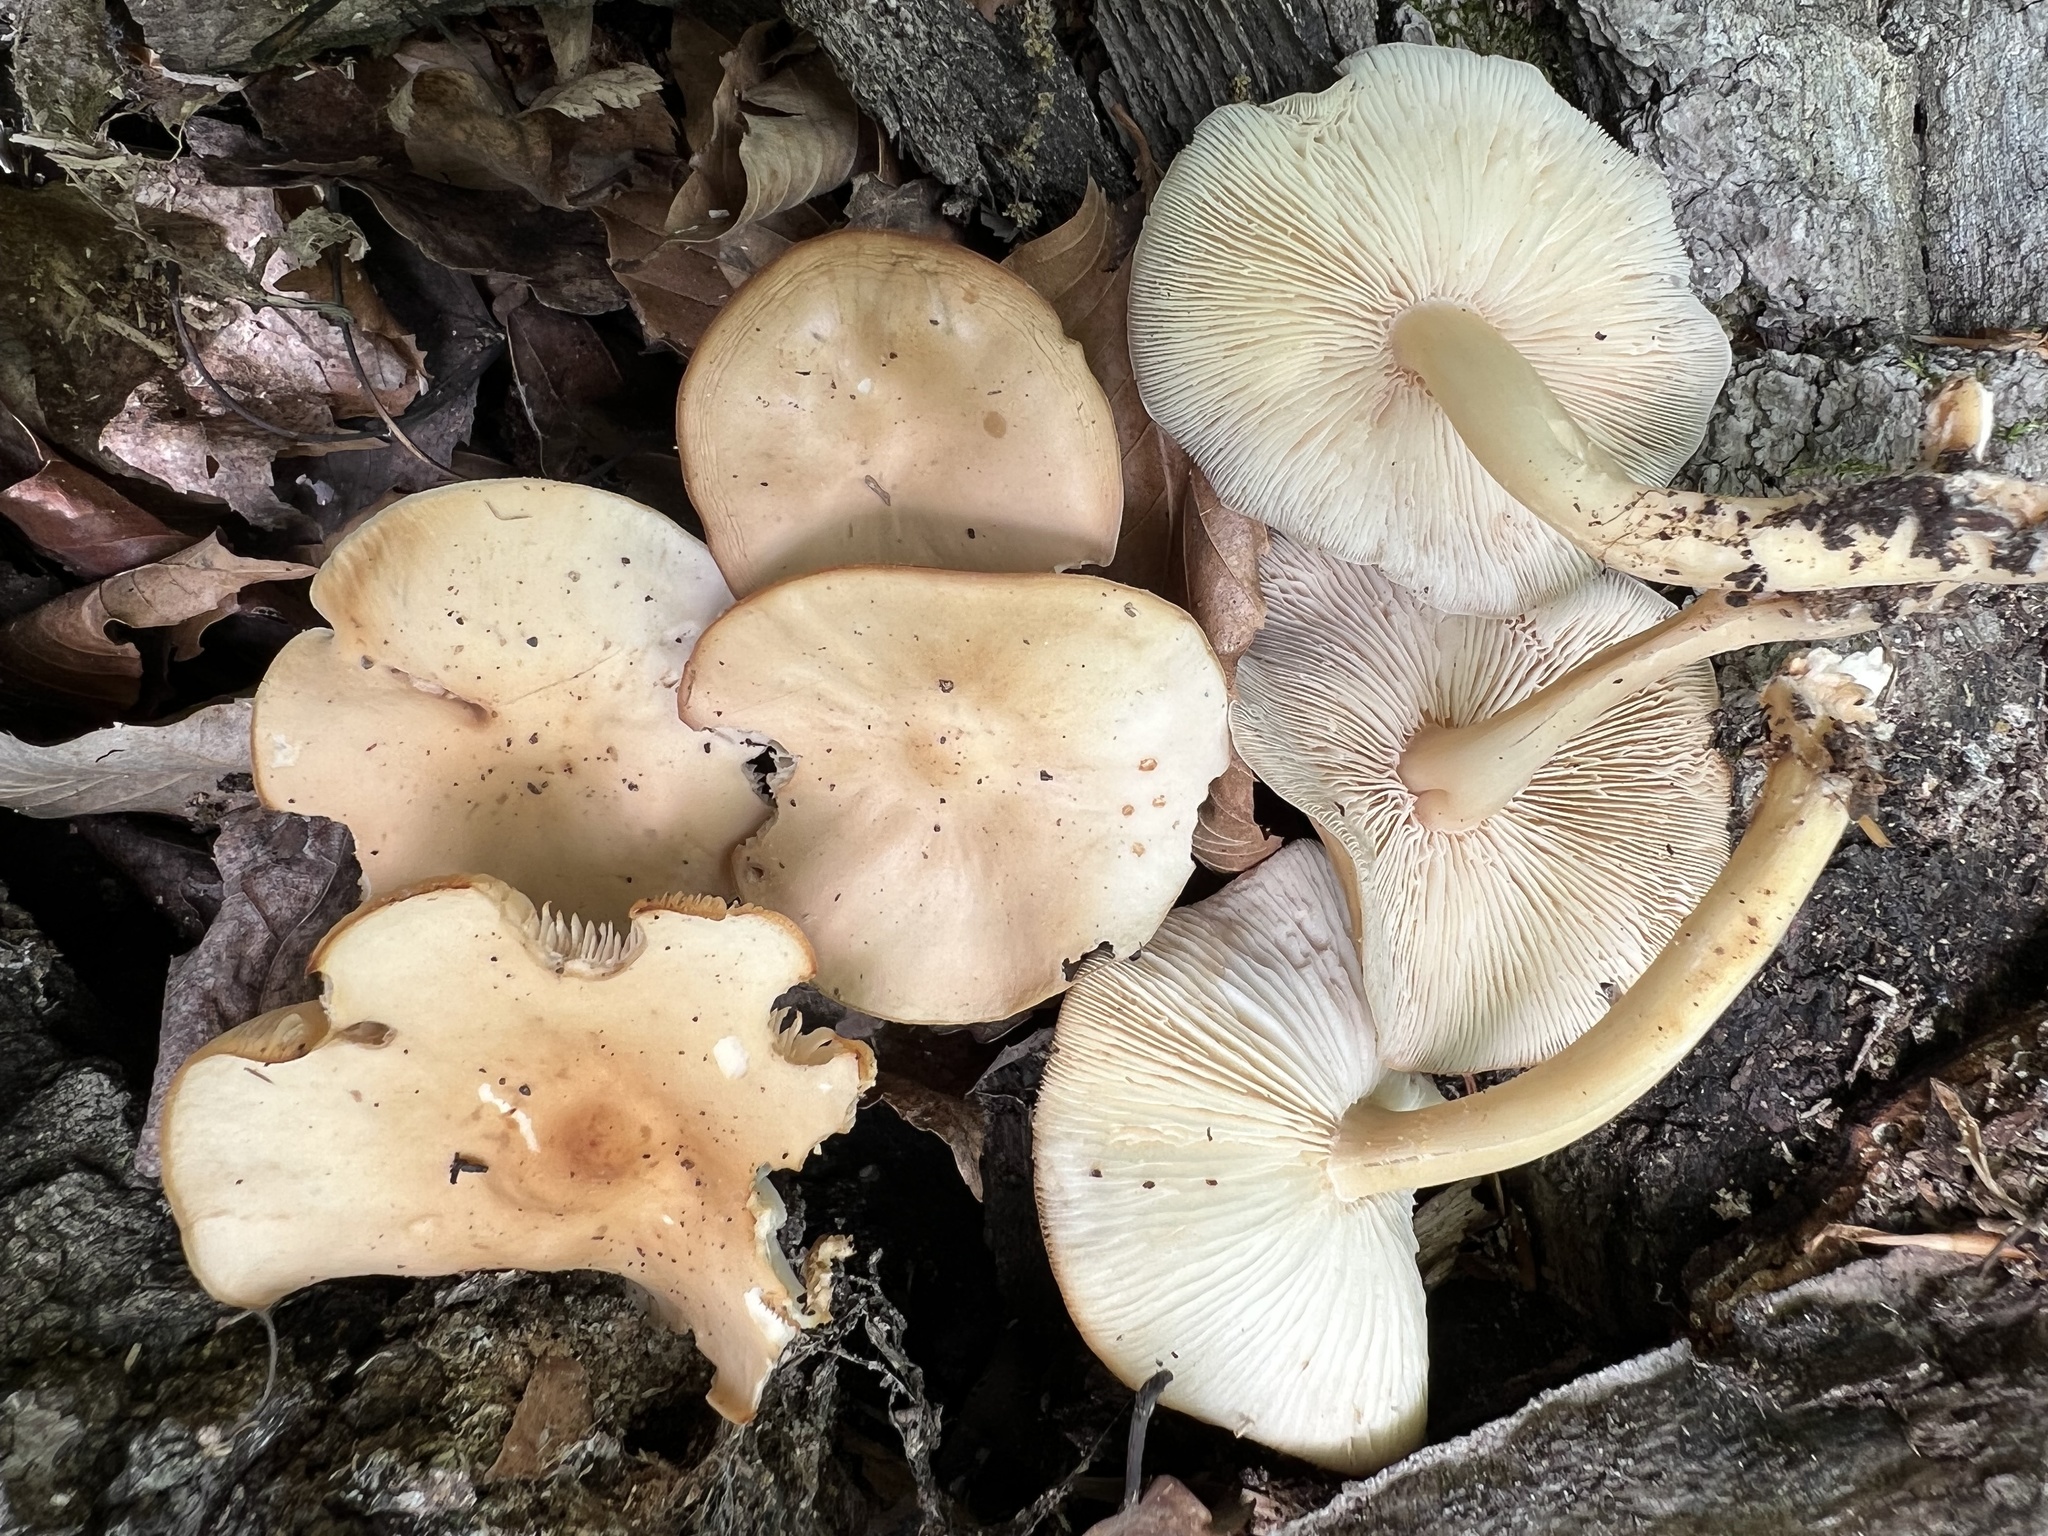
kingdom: Fungi
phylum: Basidiomycota
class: Agaricomycetes
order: Agaricales
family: Omphalotaceae
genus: Gymnopus
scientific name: Gymnopus dryophilus
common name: Penny top
